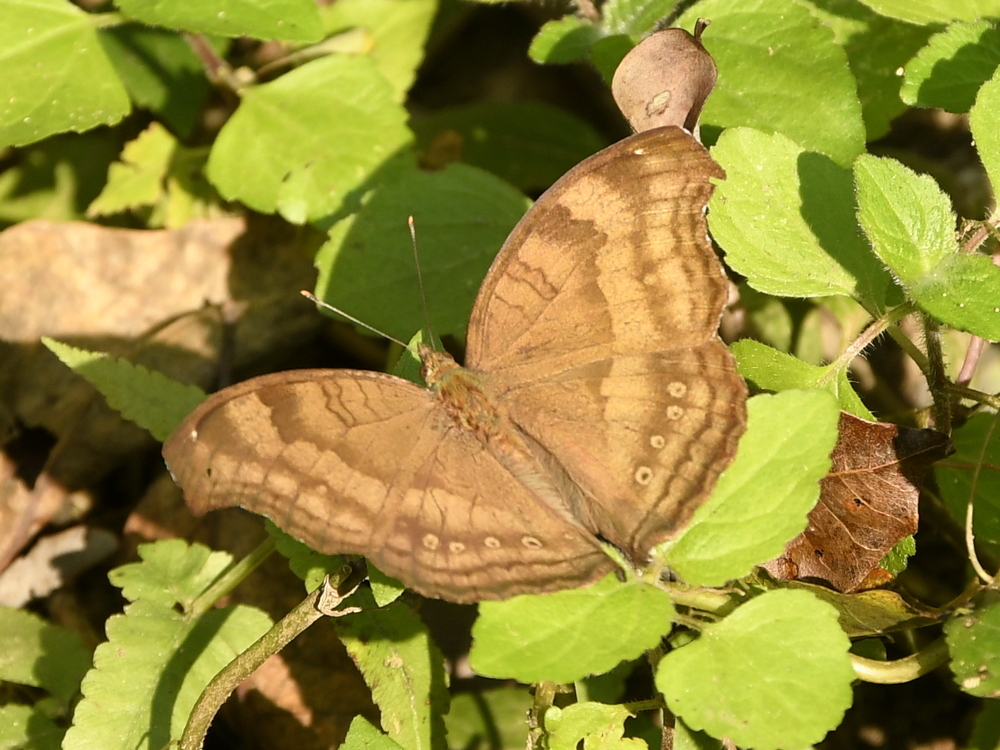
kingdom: Animalia
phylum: Arthropoda
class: Insecta
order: Lepidoptera
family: Nymphalidae
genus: Junonia
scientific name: Junonia iphita
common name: Chocolate pansy
